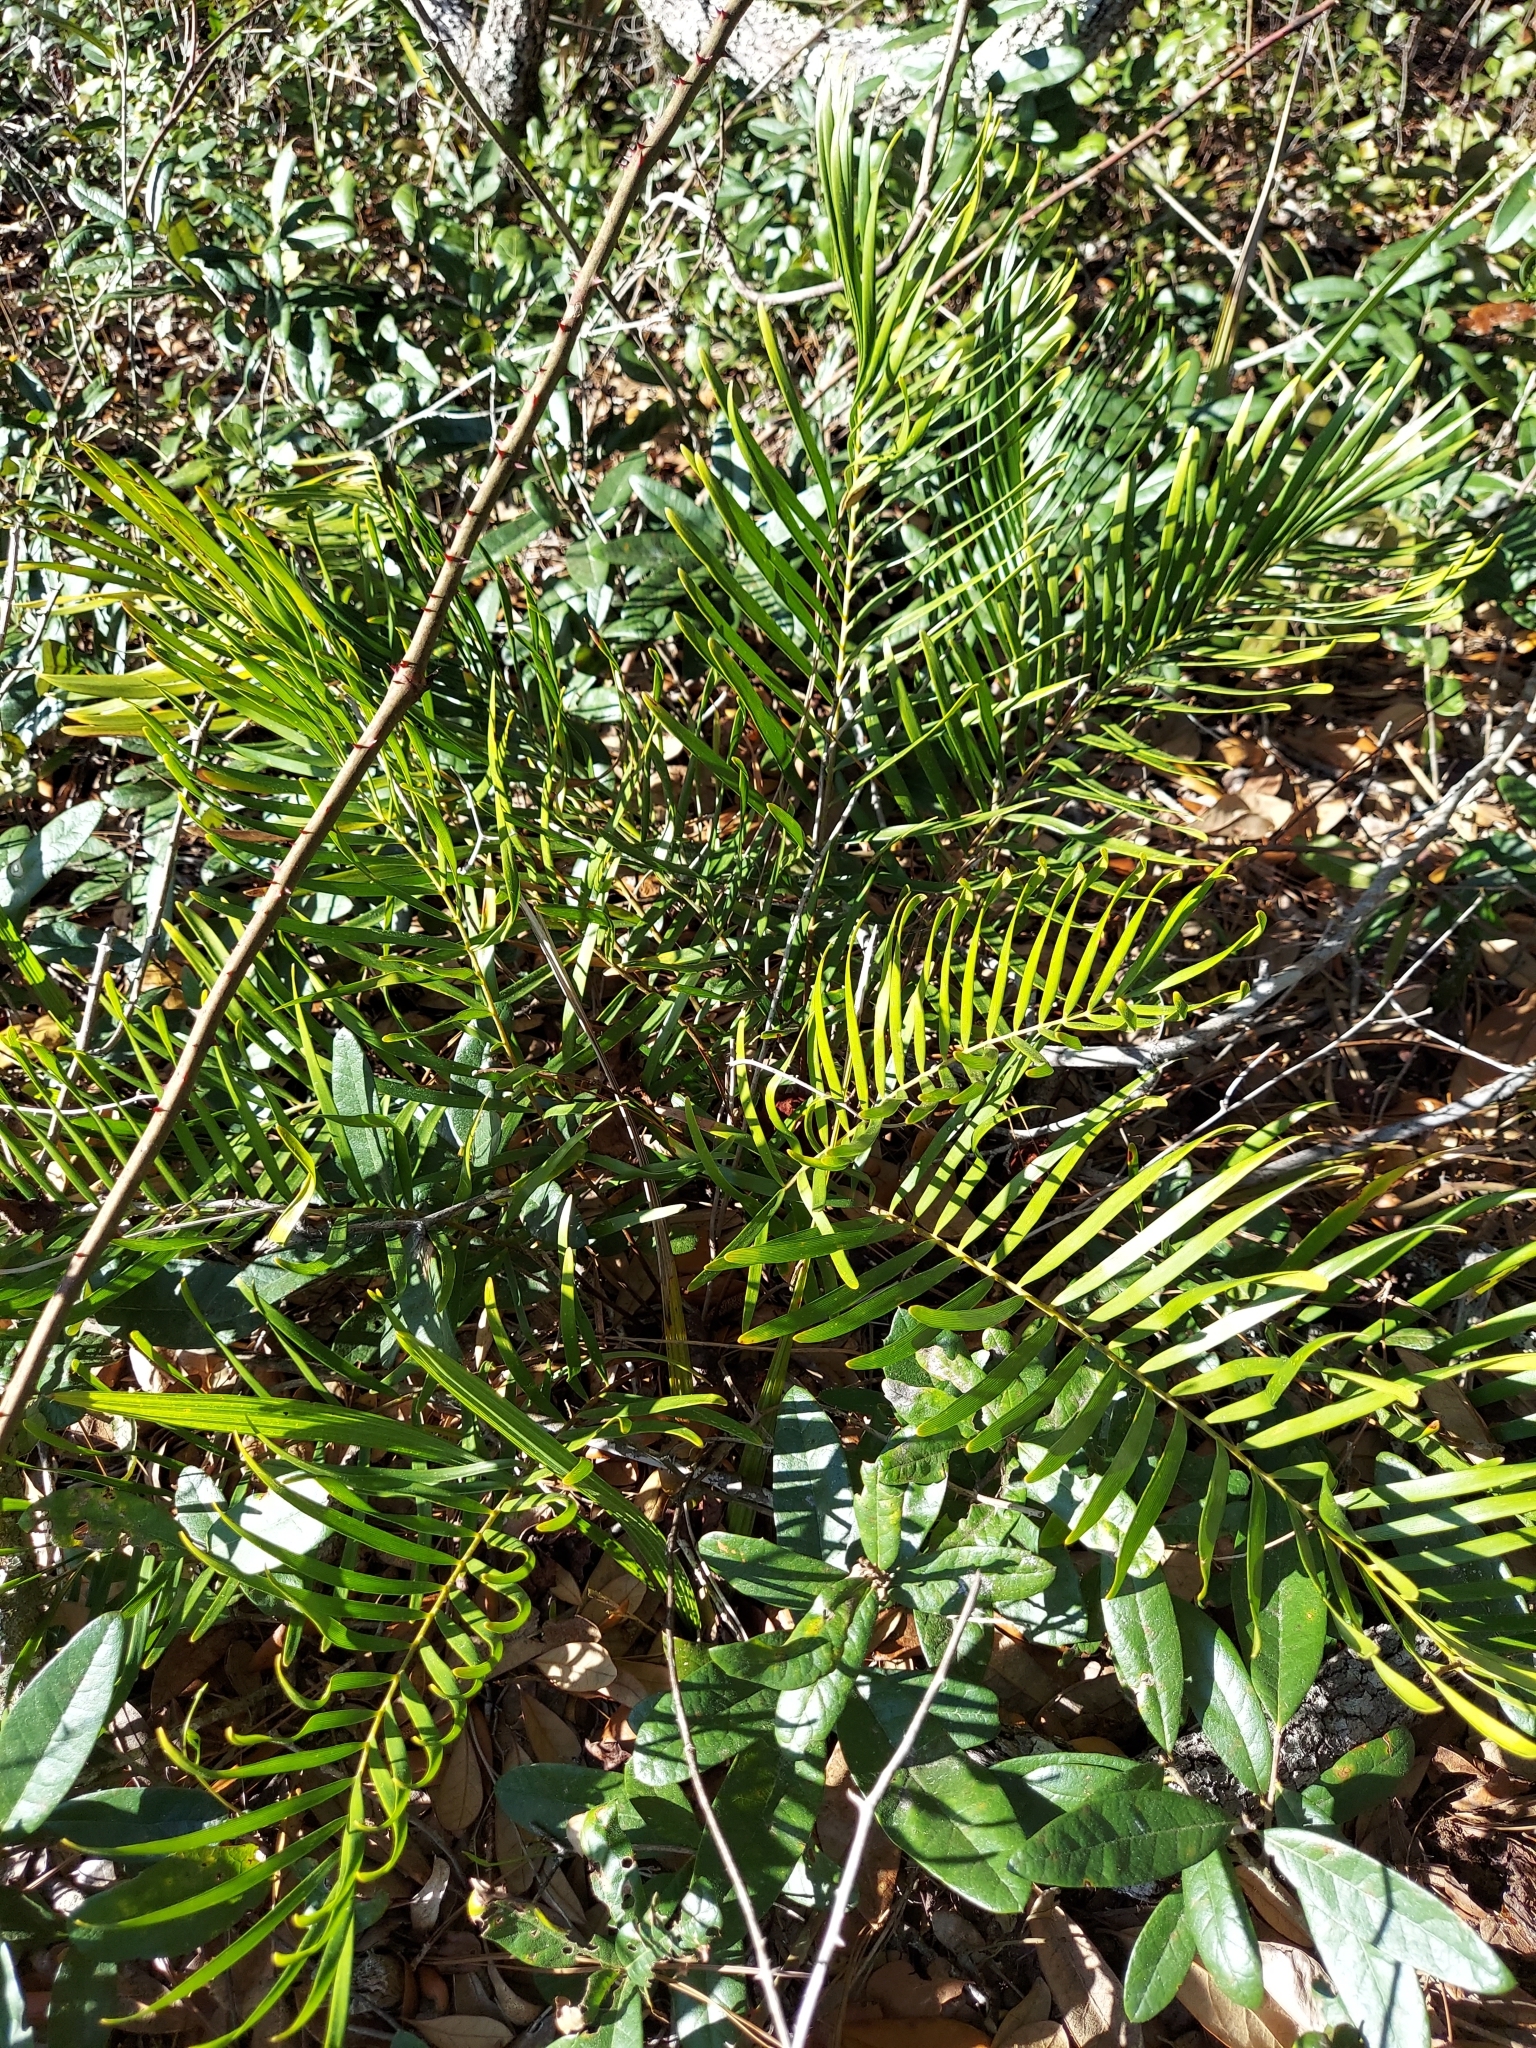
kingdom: Plantae
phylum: Tracheophyta
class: Cycadopsida
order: Cycadales
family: Zamiaceae
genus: Zamia
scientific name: Zamia integrifolia
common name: Florida arrowroot
